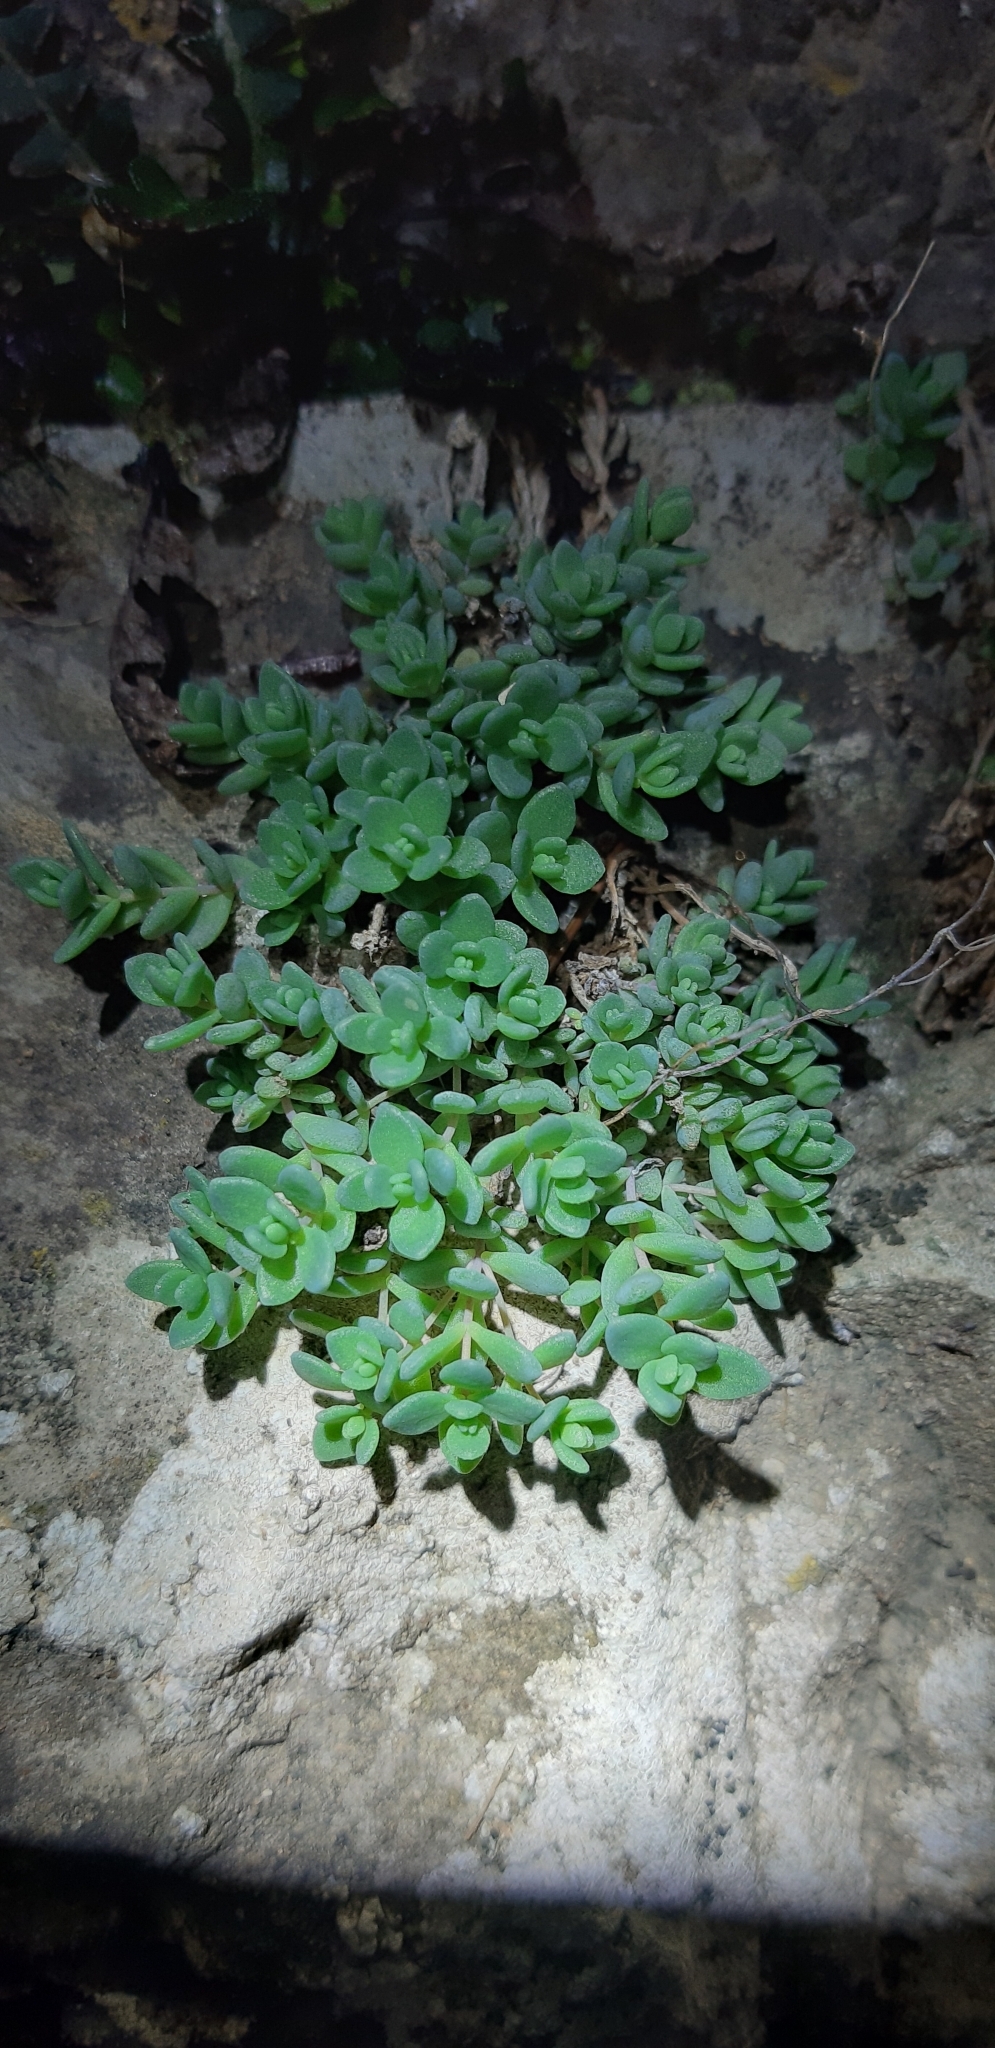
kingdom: Plantae
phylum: Tracheophyta
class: Magnoliopsida
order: Saxifragales
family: Crassulaceae
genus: Sedum
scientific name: Sedum dasyphyllum
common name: Thick-leaf stonecrop
